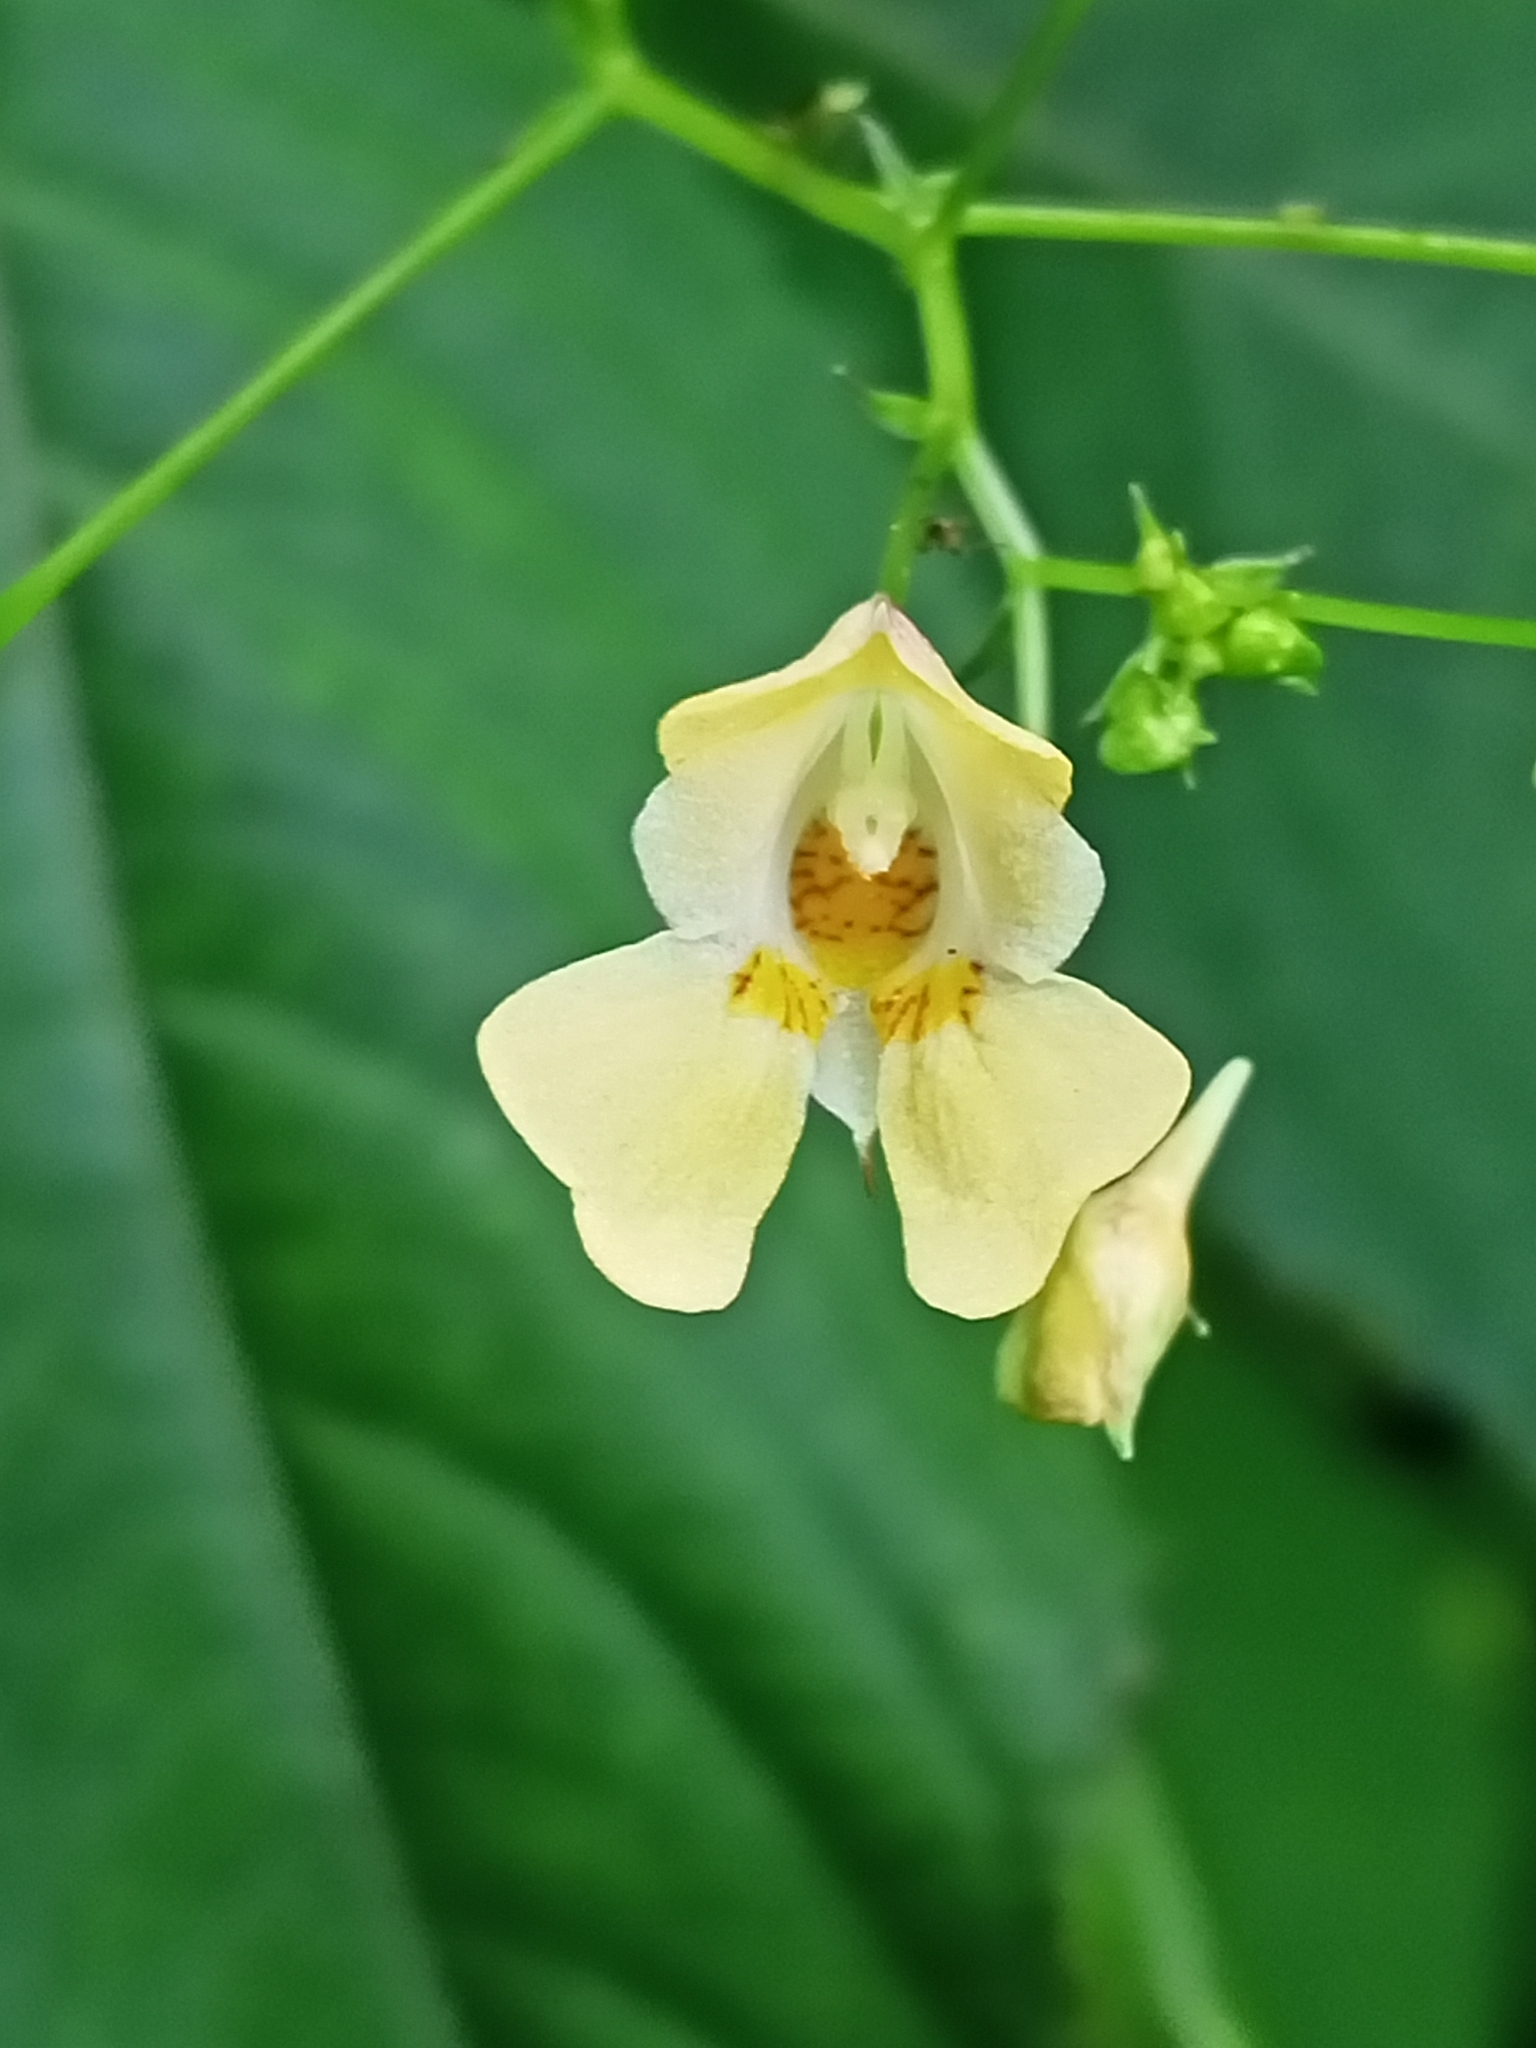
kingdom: Plantae
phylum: Tracheophyta
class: Magnoliopsida
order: Ericales
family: Balsaminaceae
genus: Impatiens
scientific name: Impatiens parviflora
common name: Small balsam
